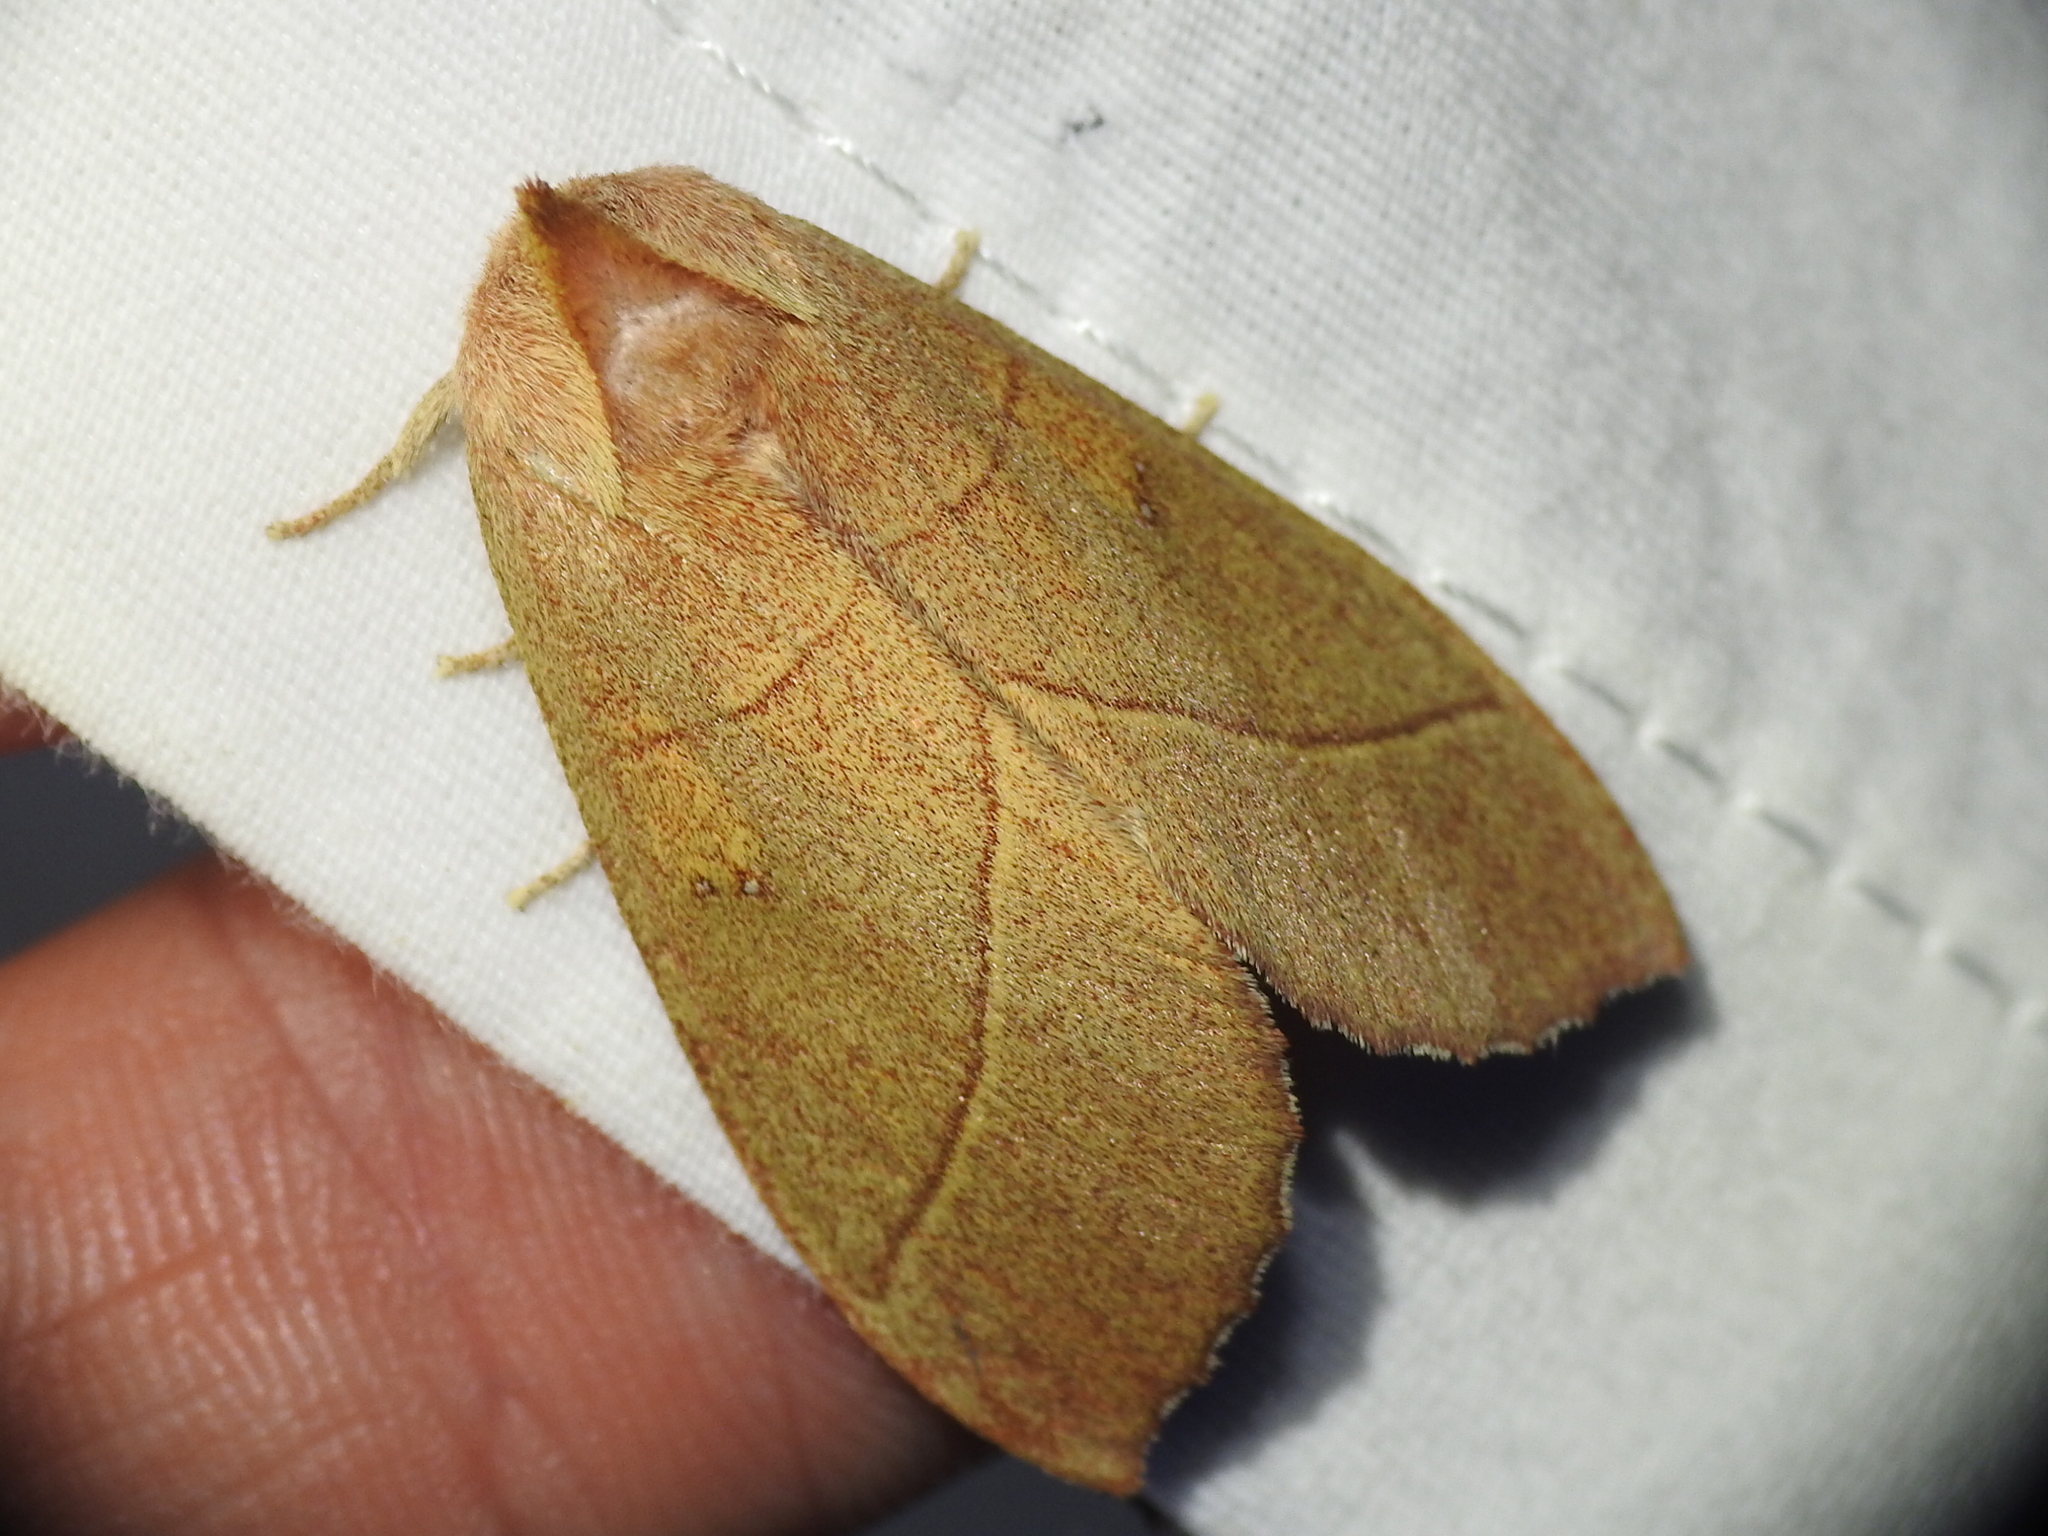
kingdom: Animalia
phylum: Arthropoda
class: Insecta
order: Lepidoptera
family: Notodontidae
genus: Nadata
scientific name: Nadata gibbosa
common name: White-dotted prominent
